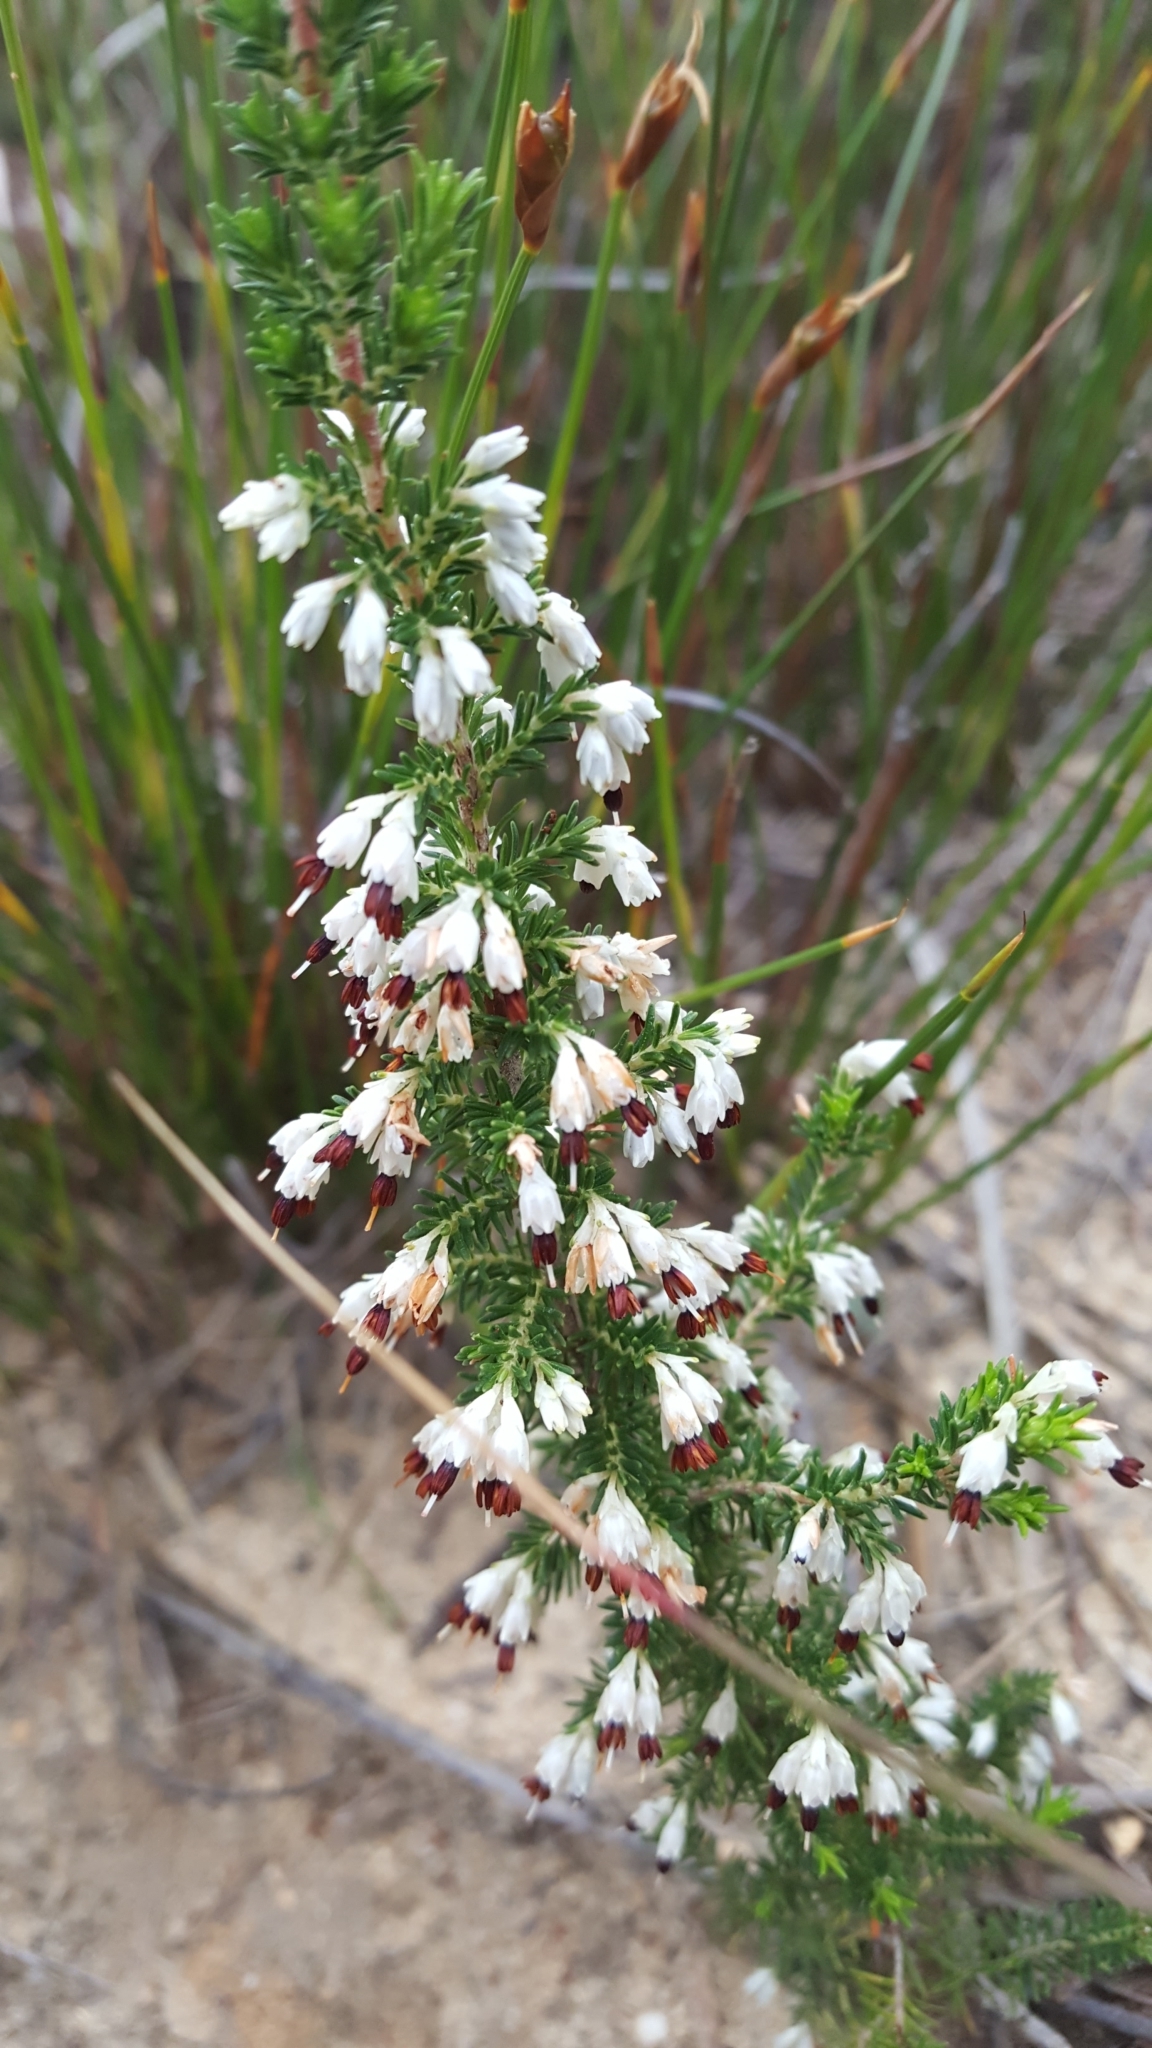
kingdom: Plantae
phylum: Tracheophyta
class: Magnoliopsida
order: Ericales
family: Ericaceae
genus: Erica
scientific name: Erica imbricata
